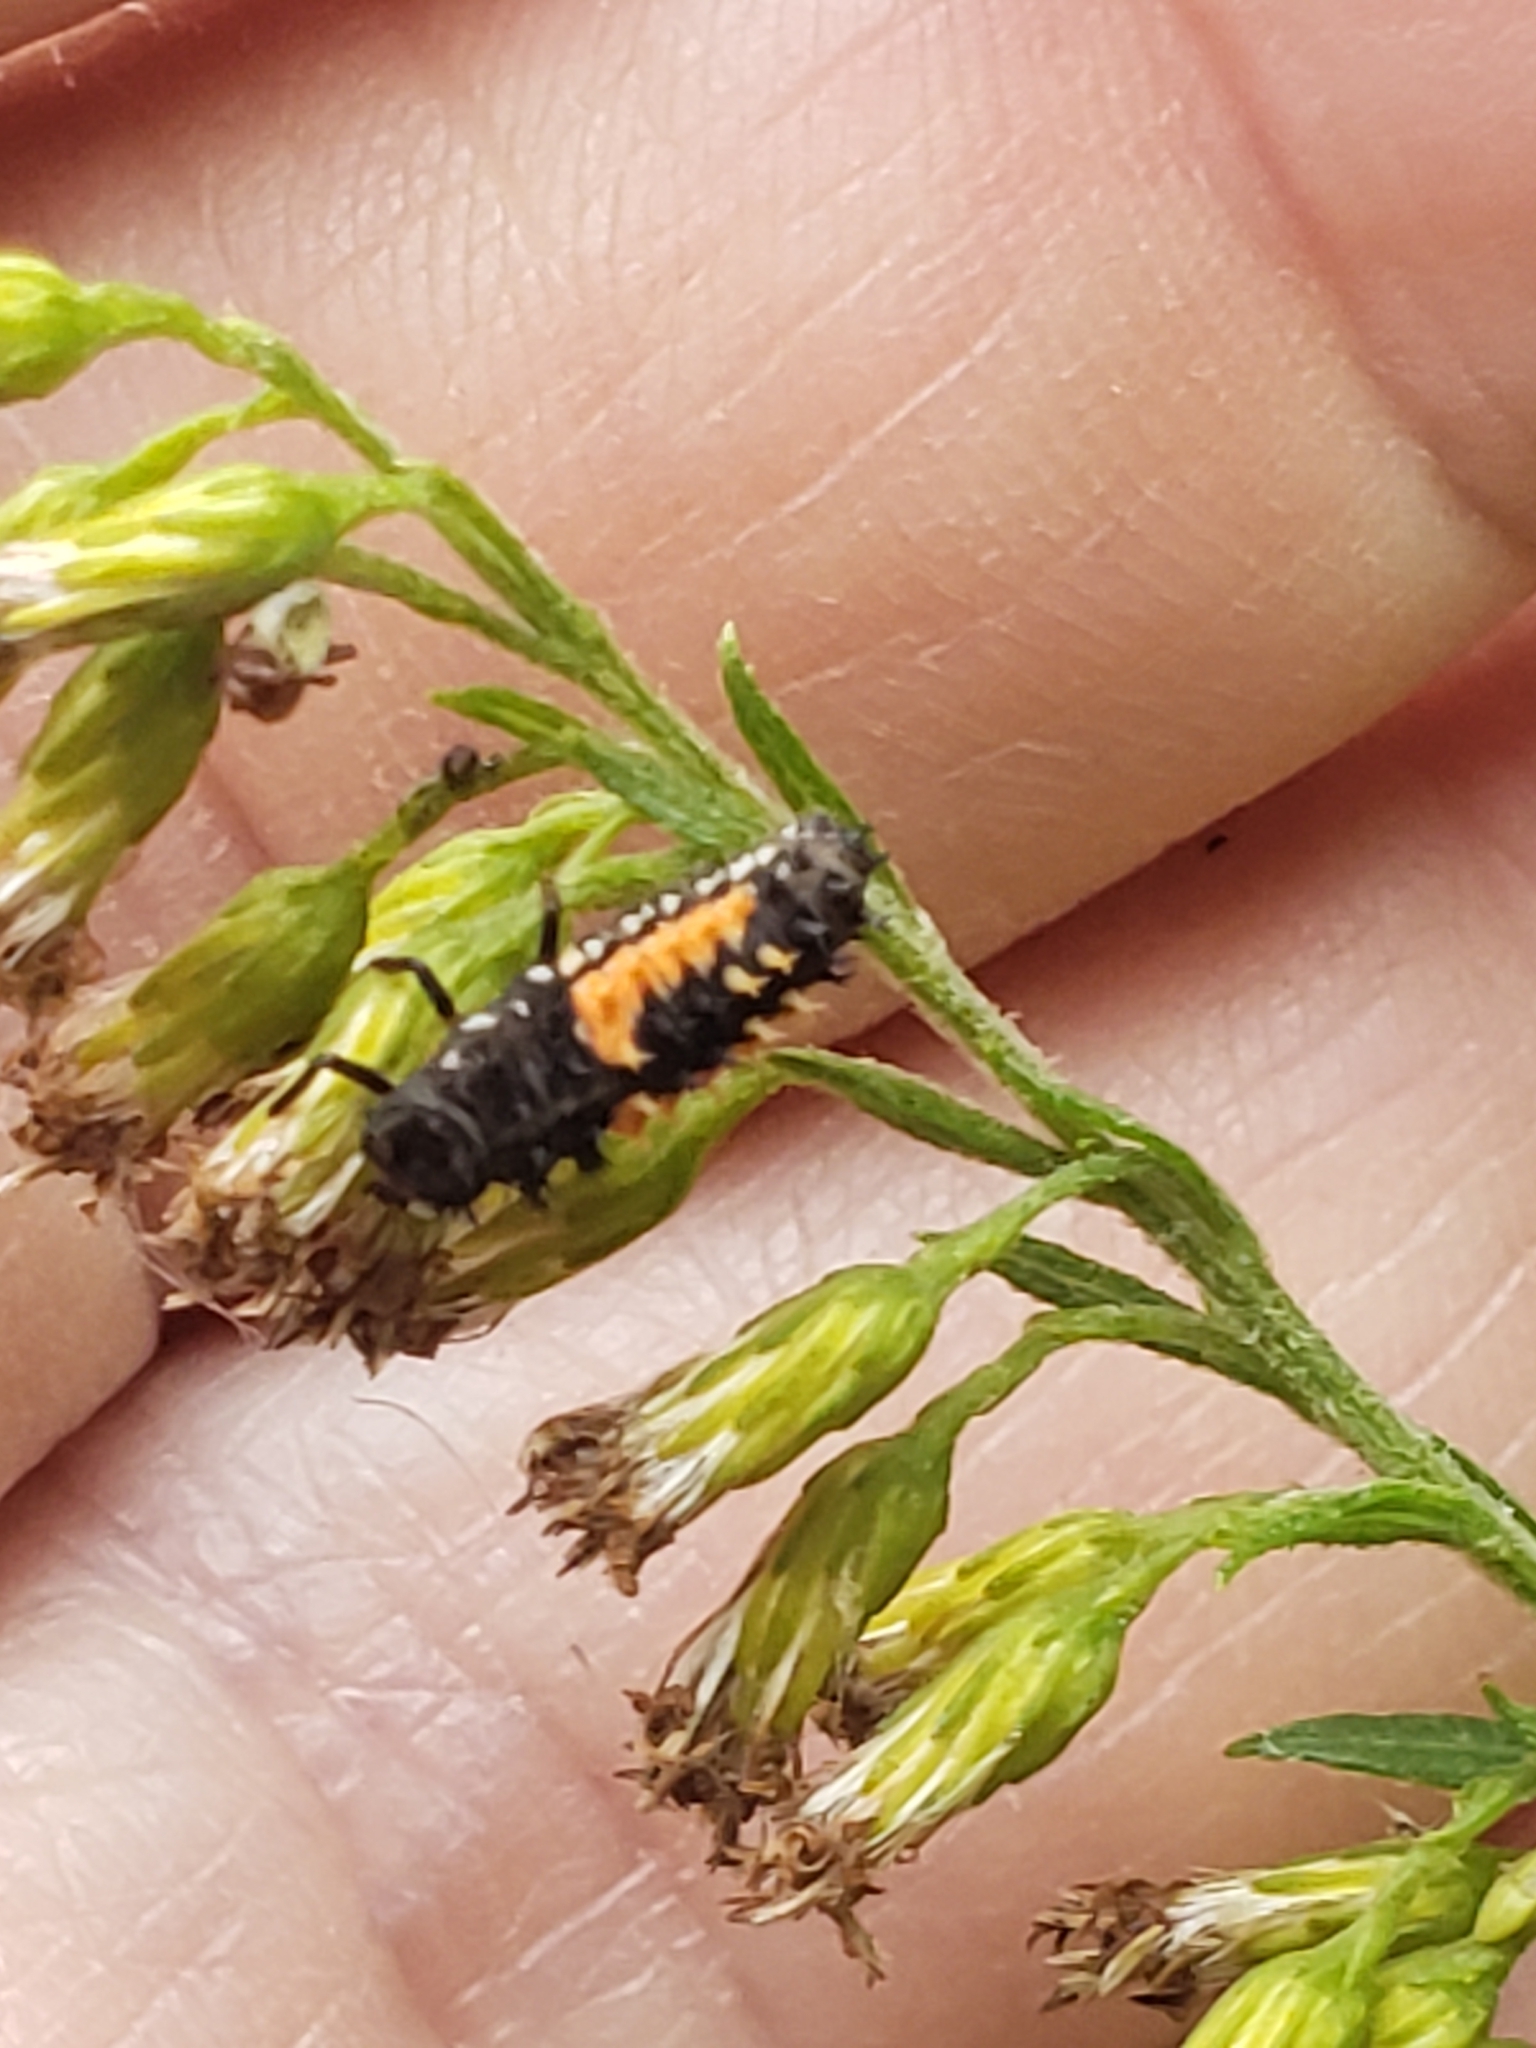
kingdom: Animalia
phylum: Arthropoda
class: Insecta
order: Coleoptera
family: Coccinellidae
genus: Harmonia
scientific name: Harmonia axyridis
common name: Harlequin ladybird
